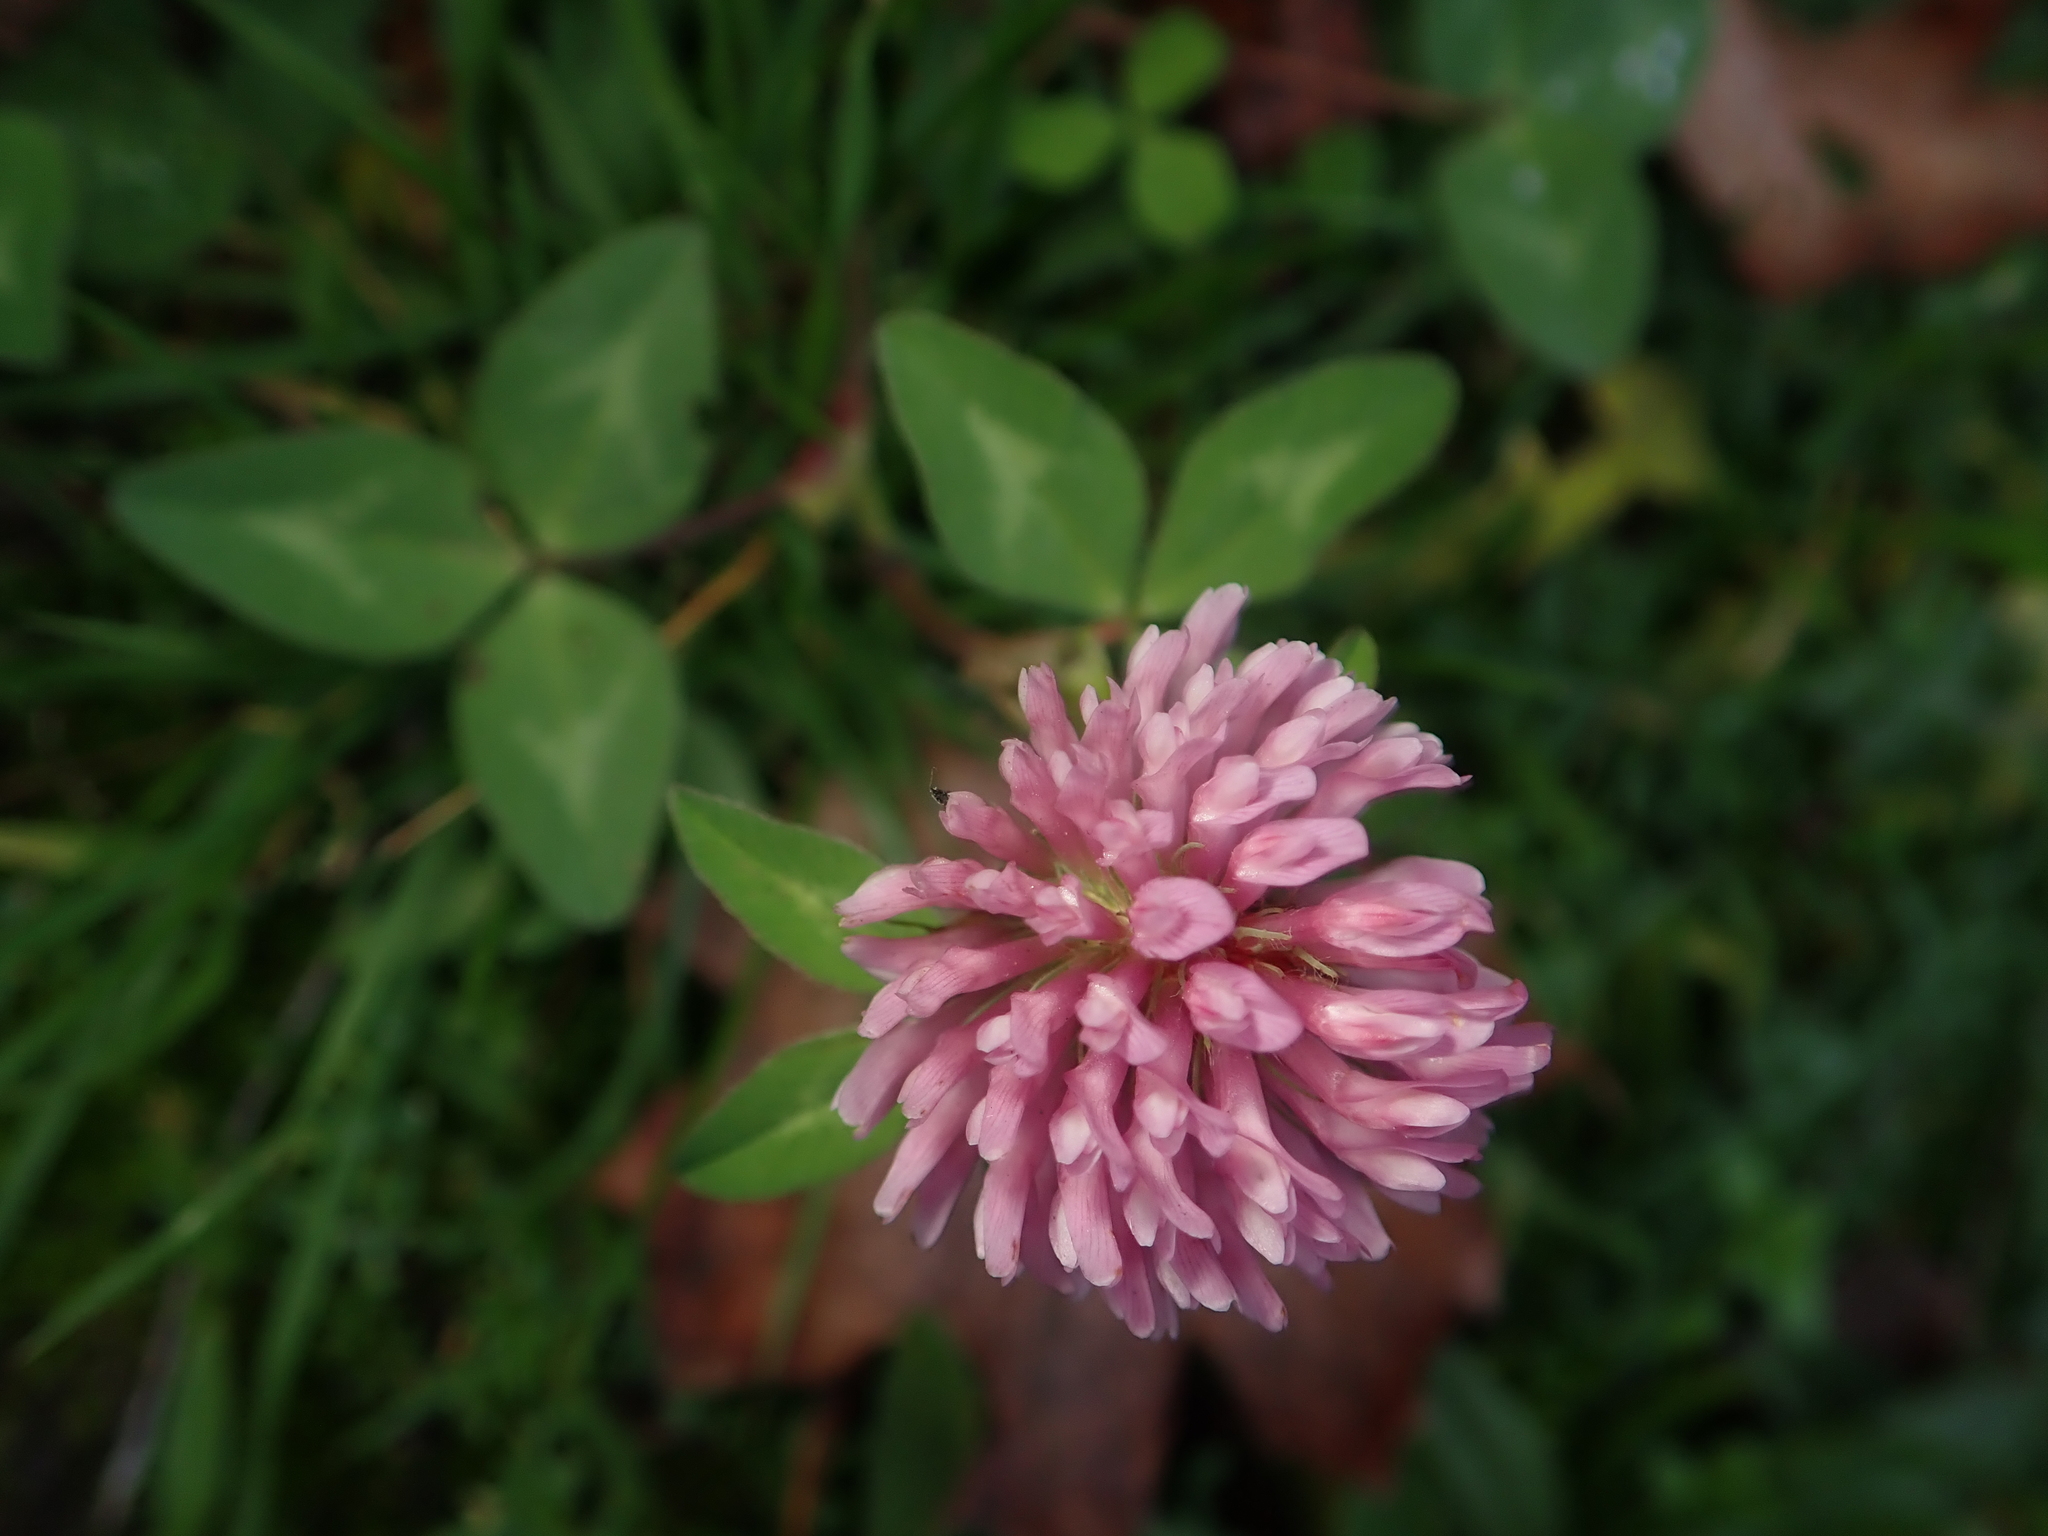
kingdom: Plantae
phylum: Tracheophyta
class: Magnoliopsida
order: Fabales
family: Fabaceae
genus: Trifolium
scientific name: Trifolium pratense
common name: Red clover
